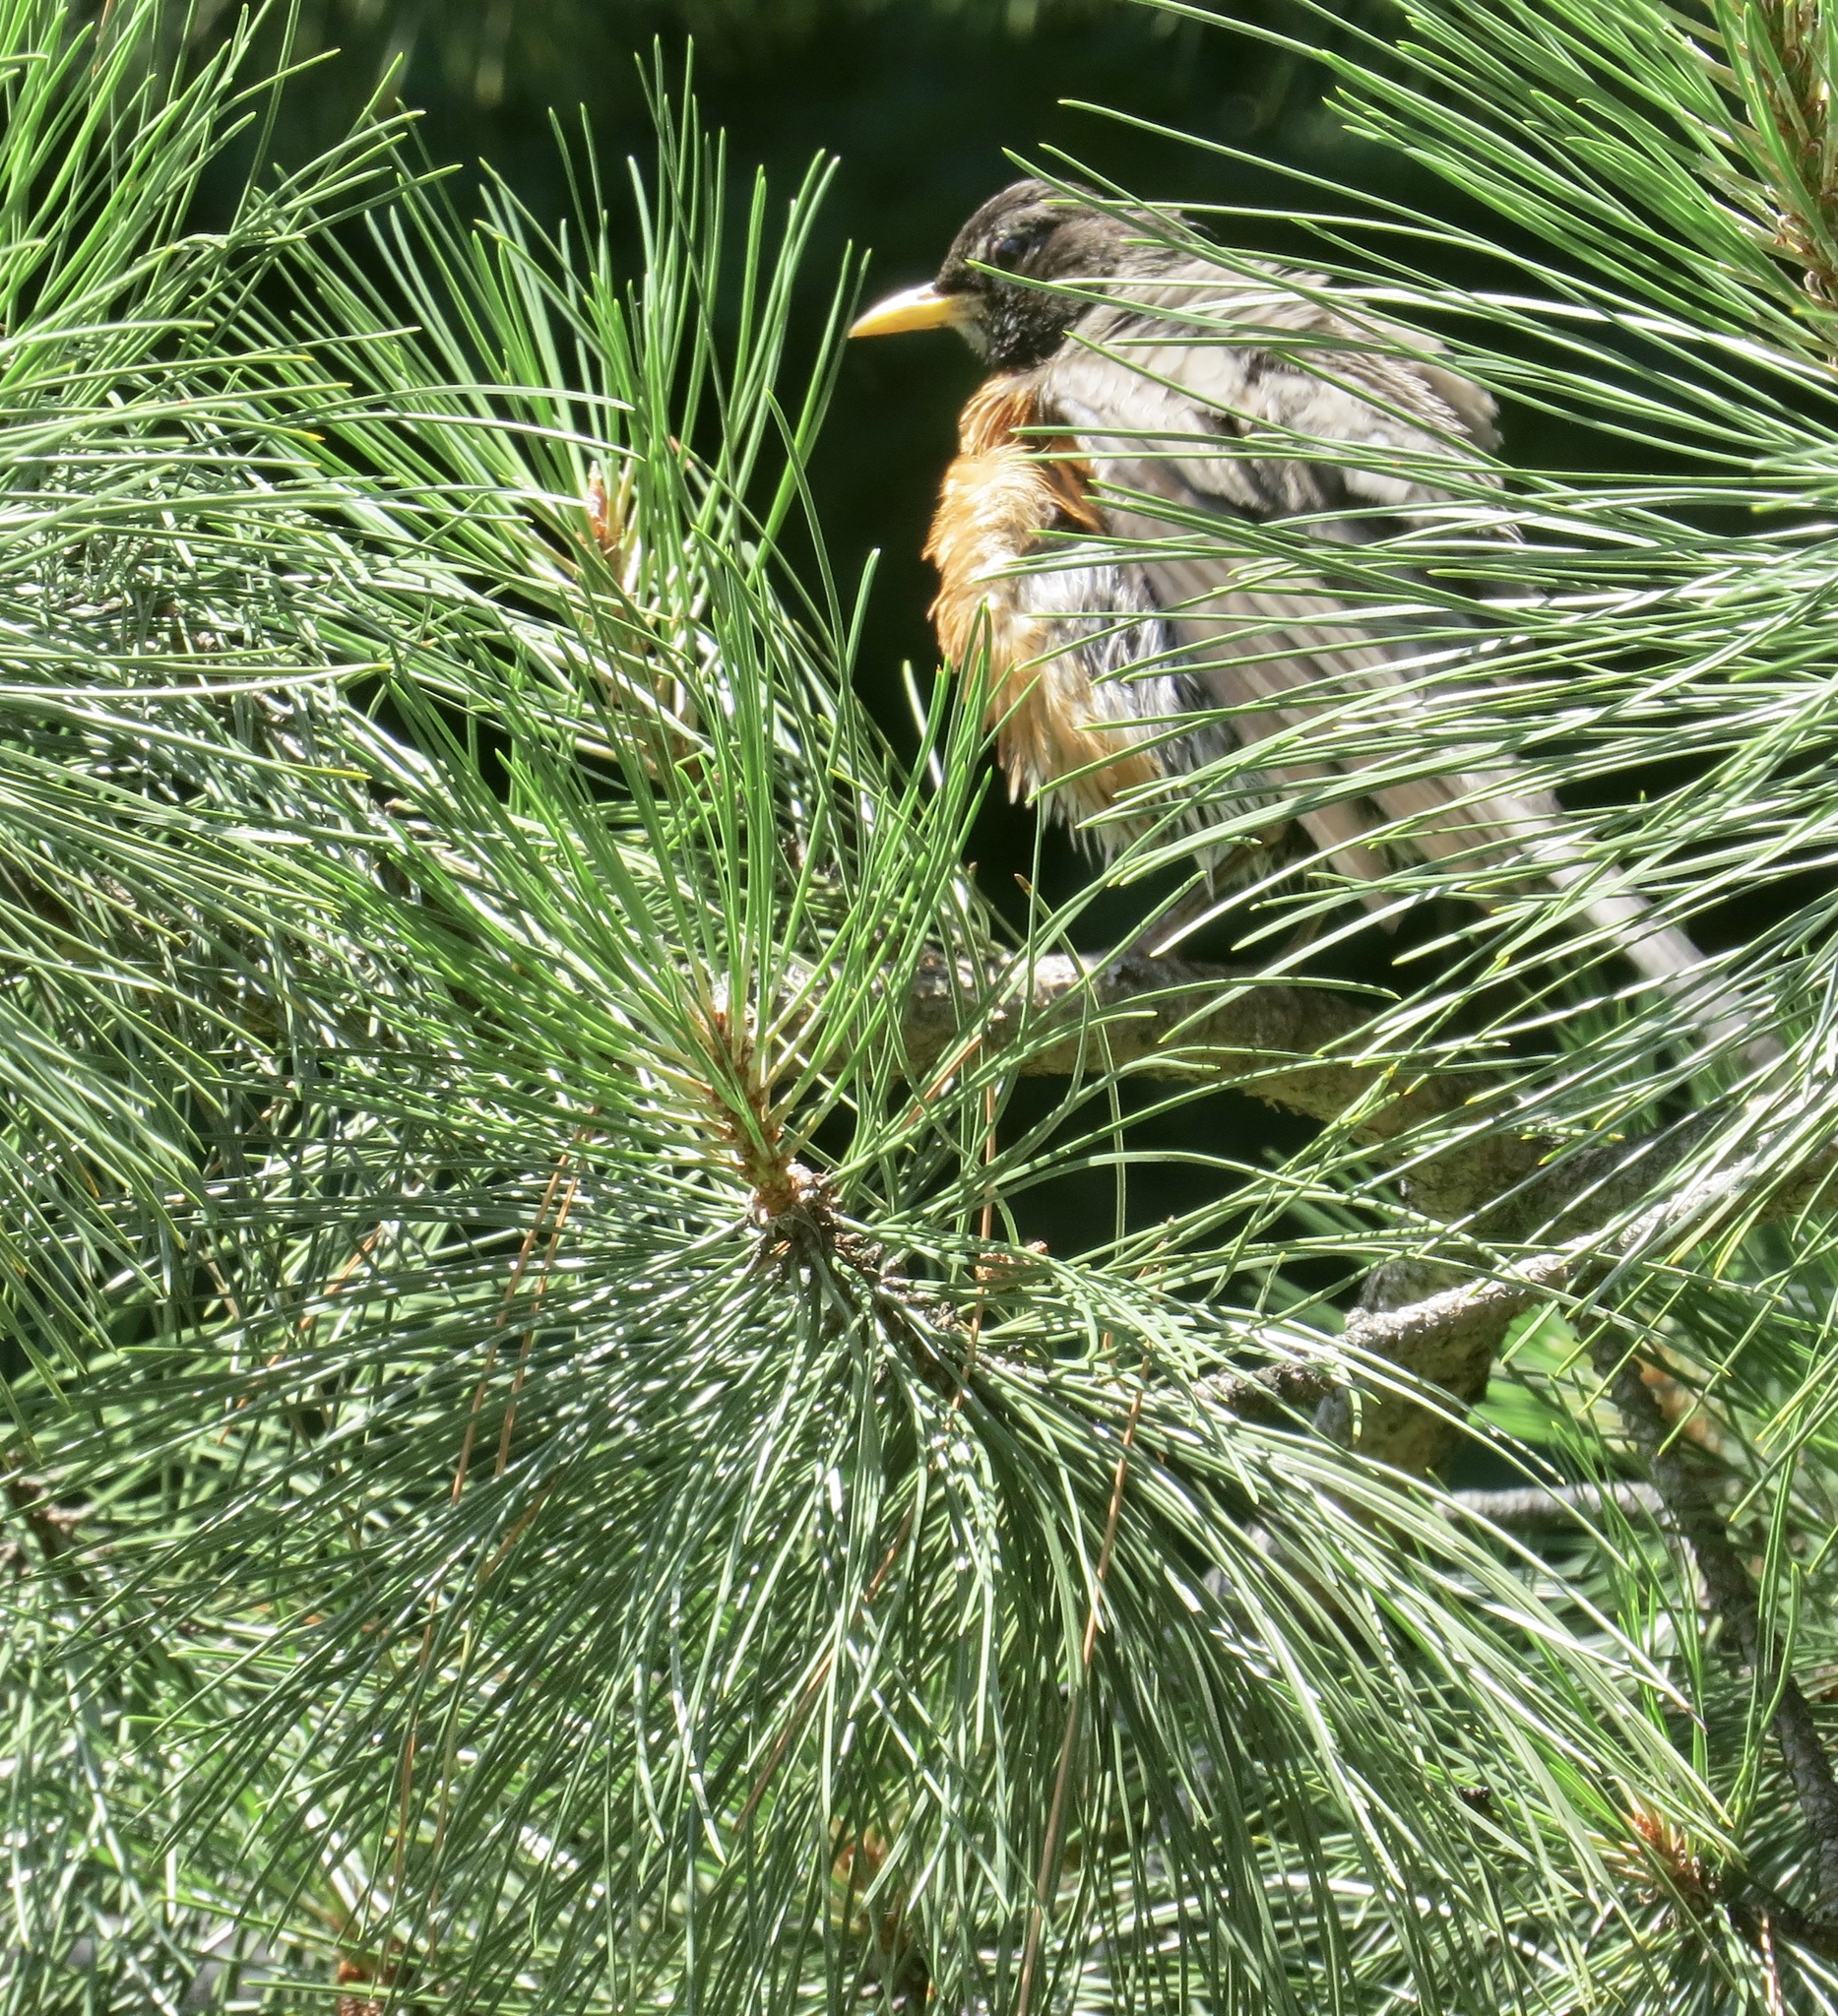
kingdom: Animalia
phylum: Chordata
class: Aves
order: Passeriformes
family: Turdidae
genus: Turdus
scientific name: Turdus migratorius
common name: American robin
